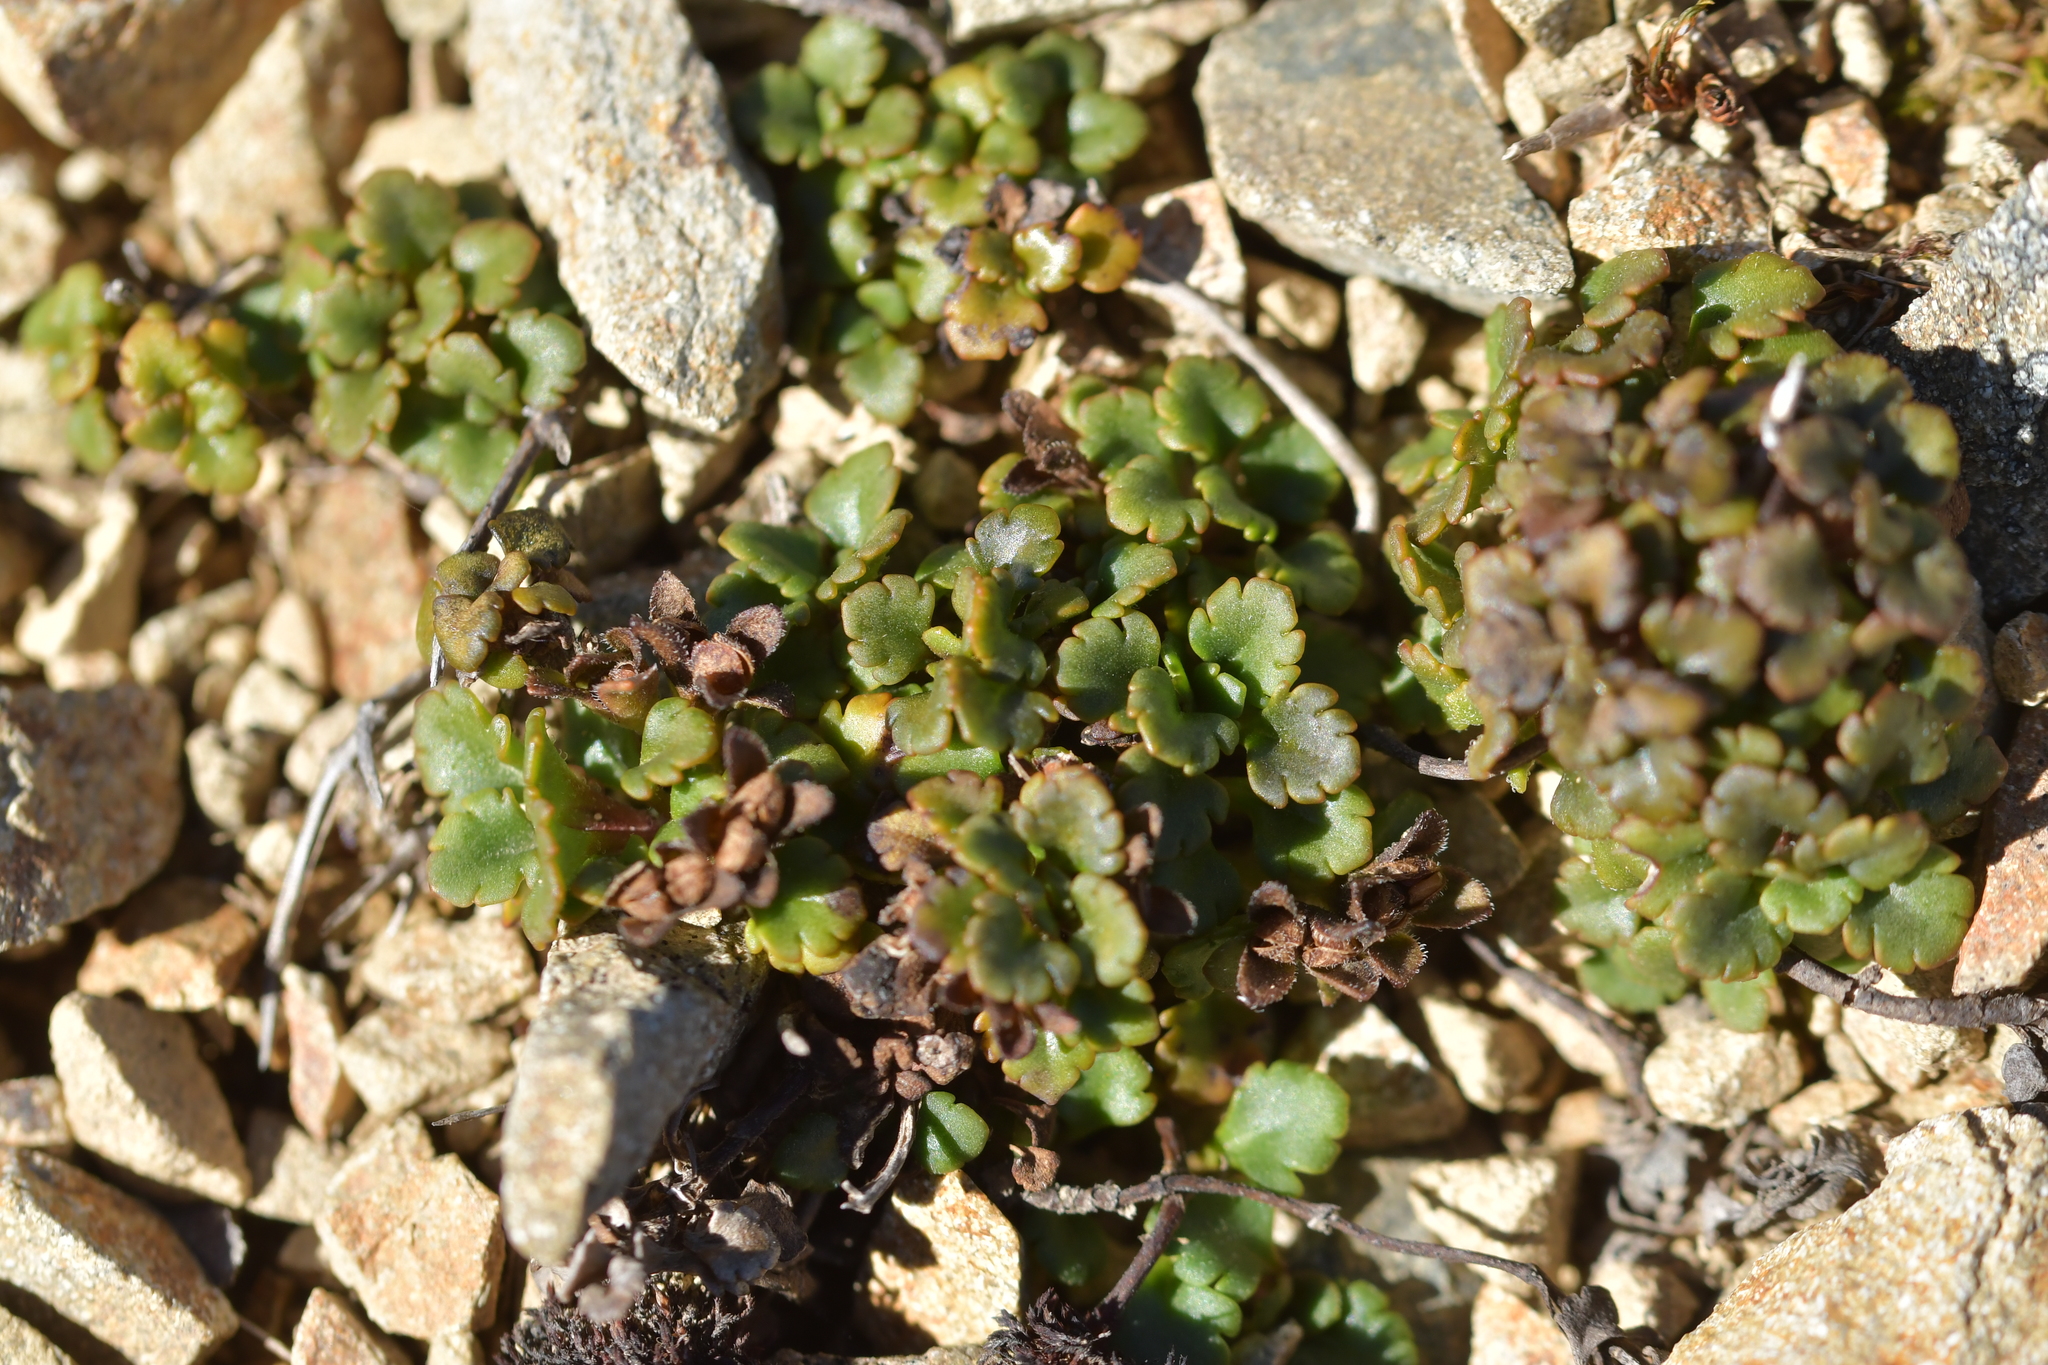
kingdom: Plantae
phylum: Tracheophyta
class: Magnoliopsida
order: Lamiales
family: Plantaginaceae
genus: Veronica
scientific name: Veronica spathulata
